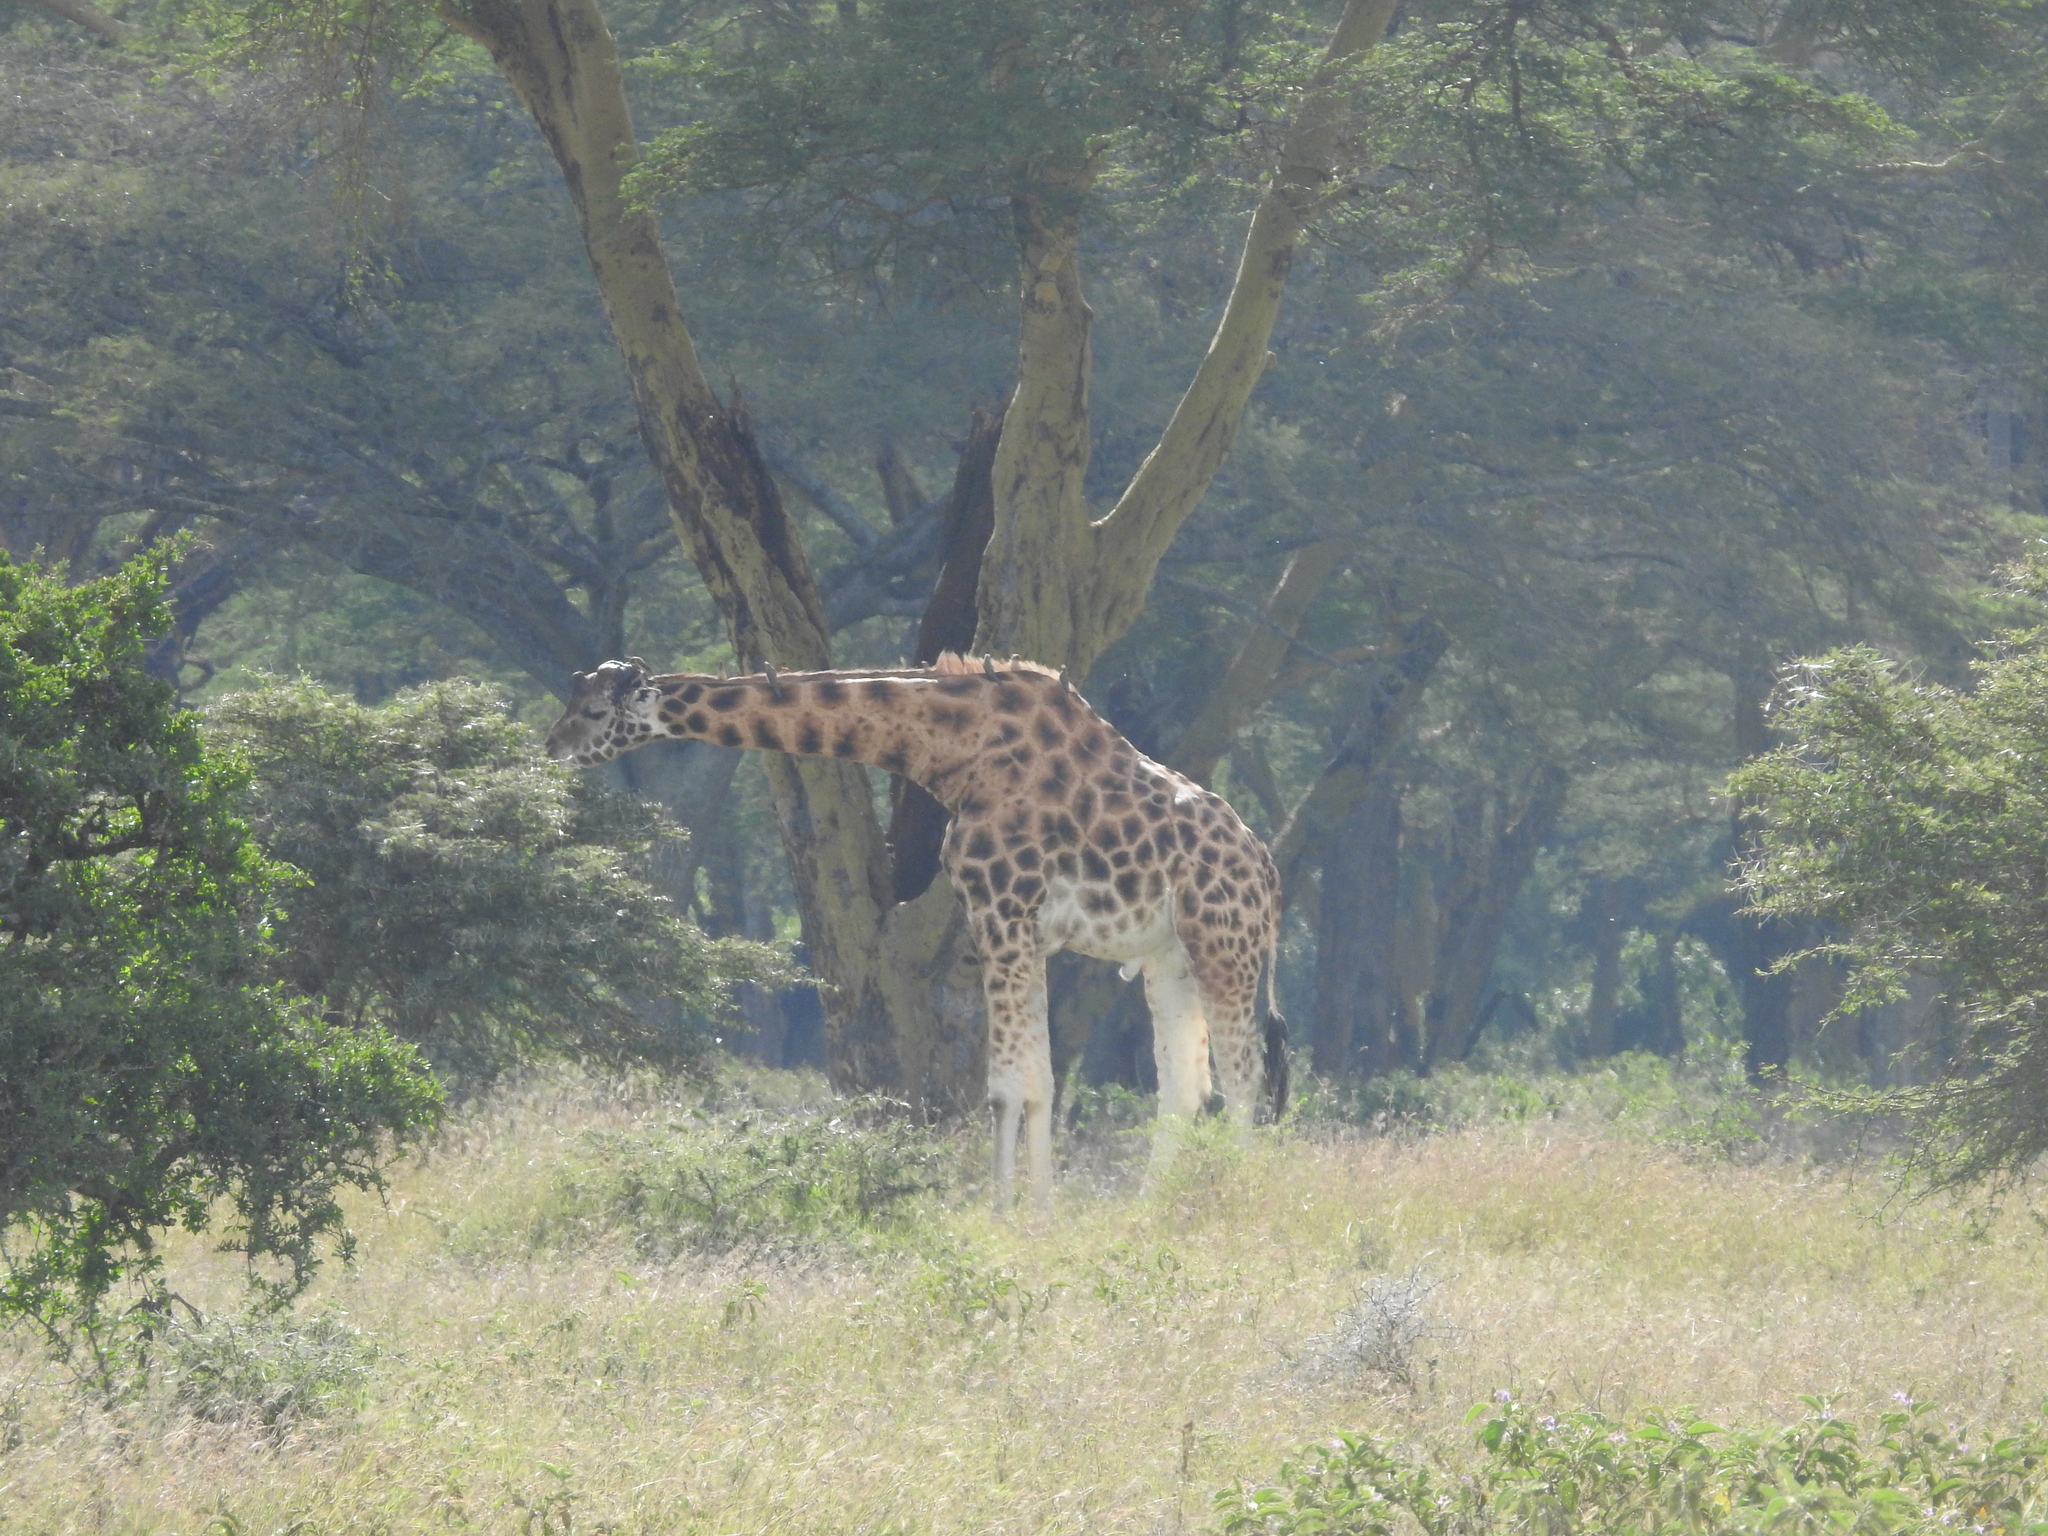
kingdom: Animalia
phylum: Chordata
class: Mammalia
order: Artiodactyla
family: Giraffidae
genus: Giraffa
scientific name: Giraffa camelopardalis
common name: Giraffe
